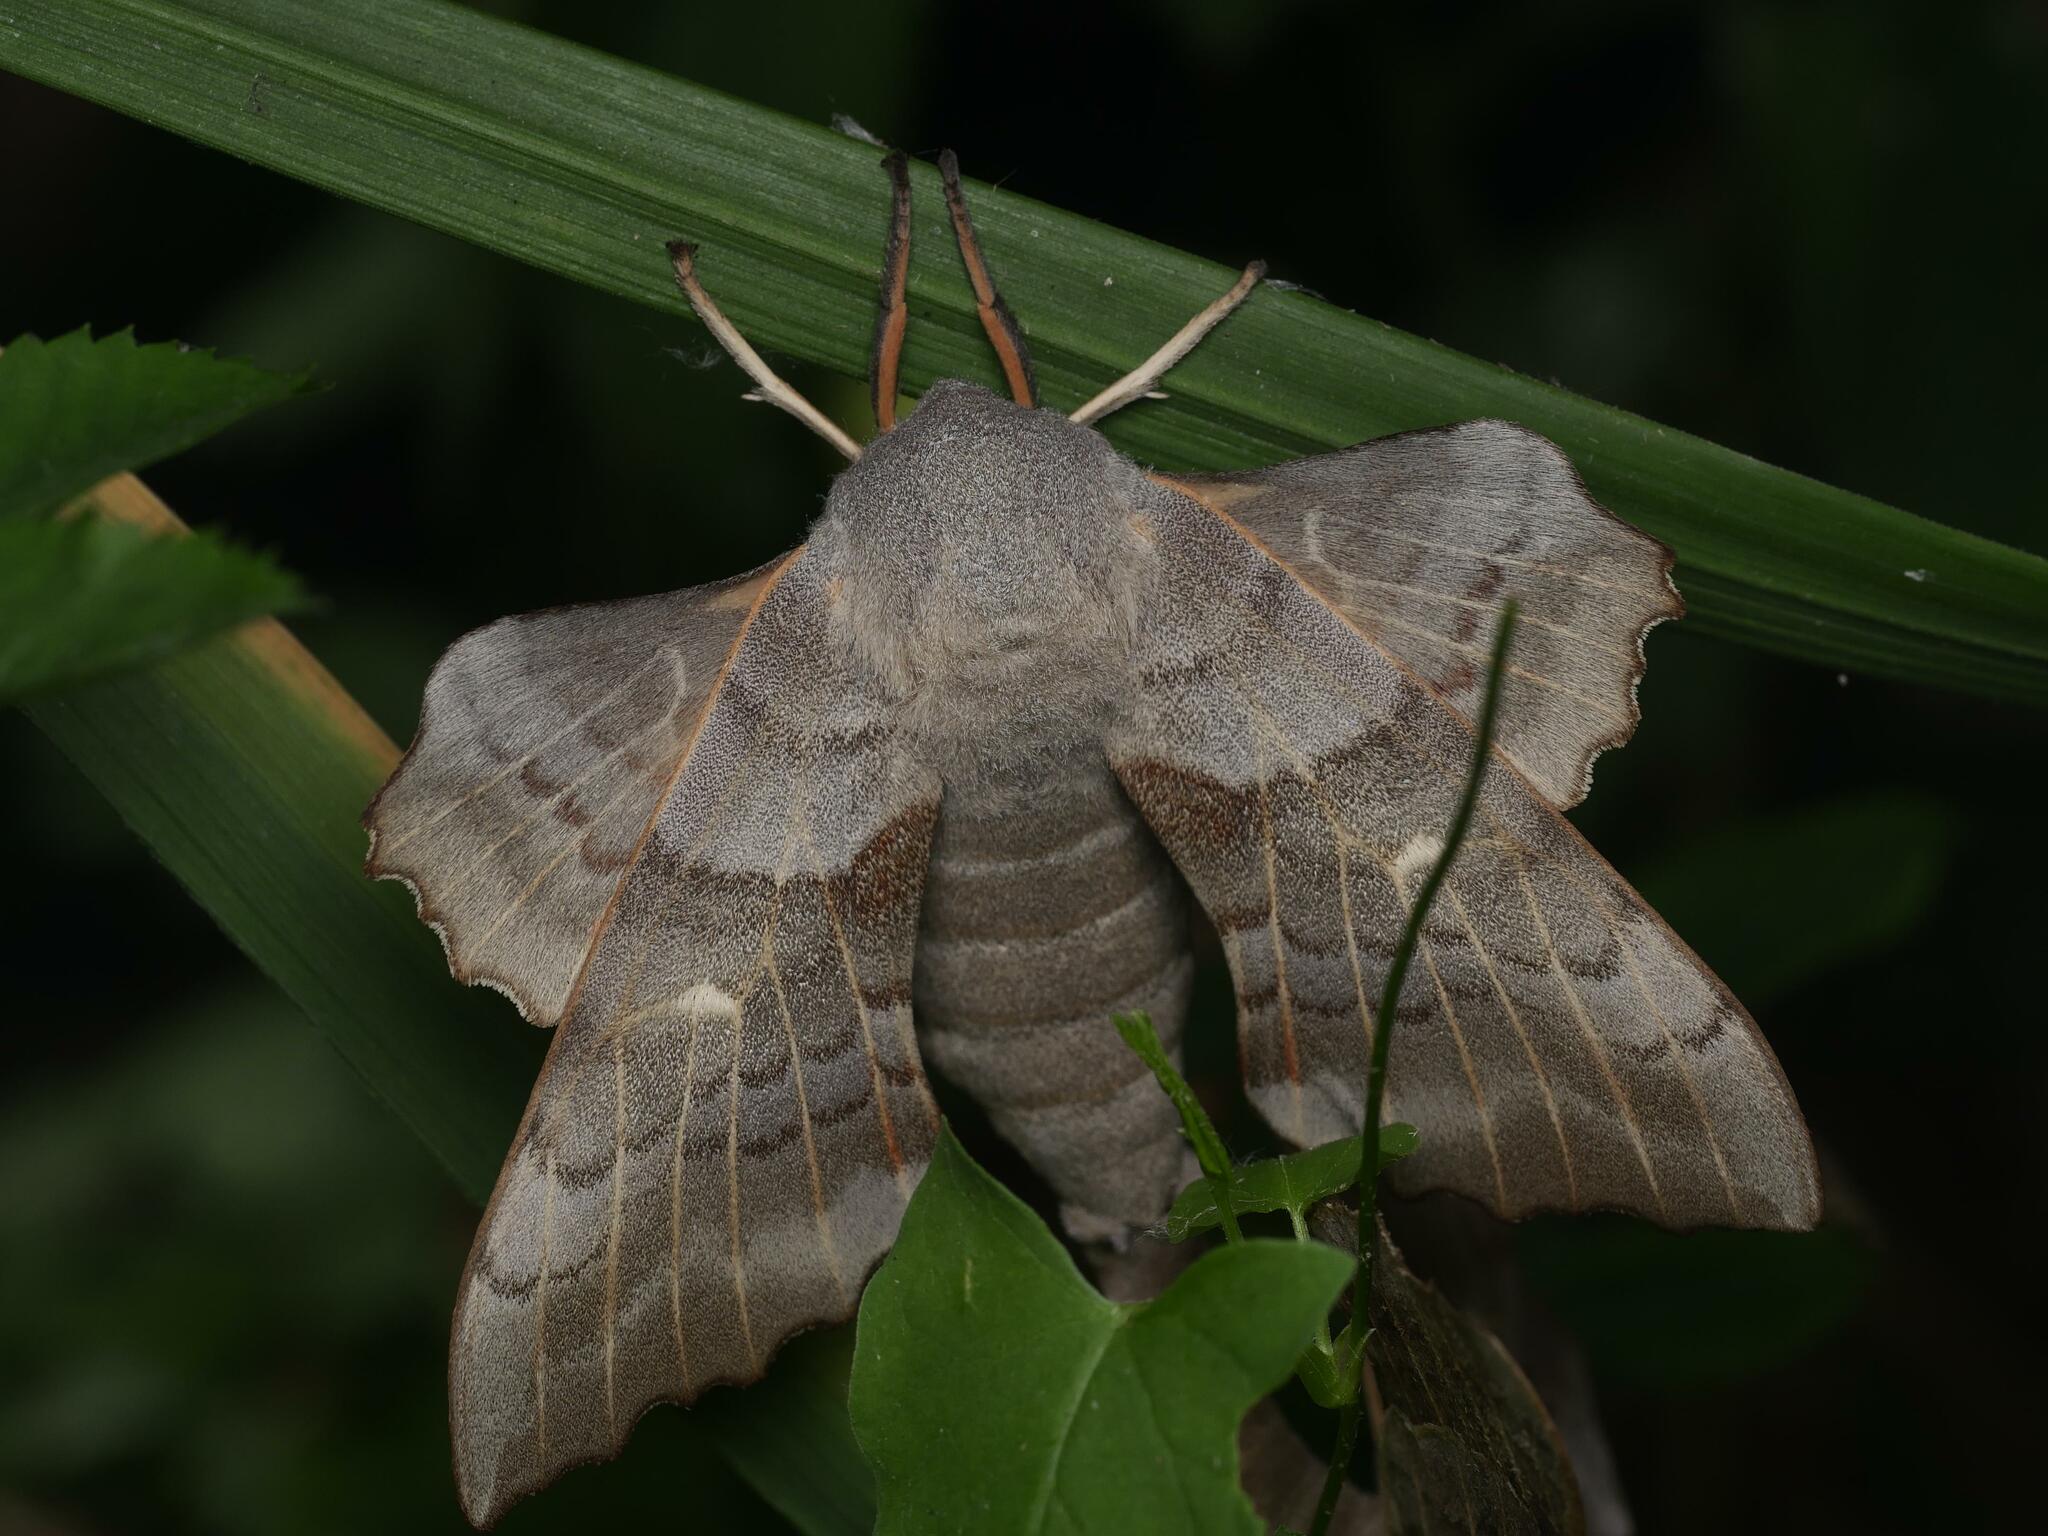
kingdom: Animalia
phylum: Arthropoda
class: Insecta
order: Lepidoptera
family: Sphingidae
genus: Laothoe
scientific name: Laothoe populi
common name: Poplar hawk-moth
